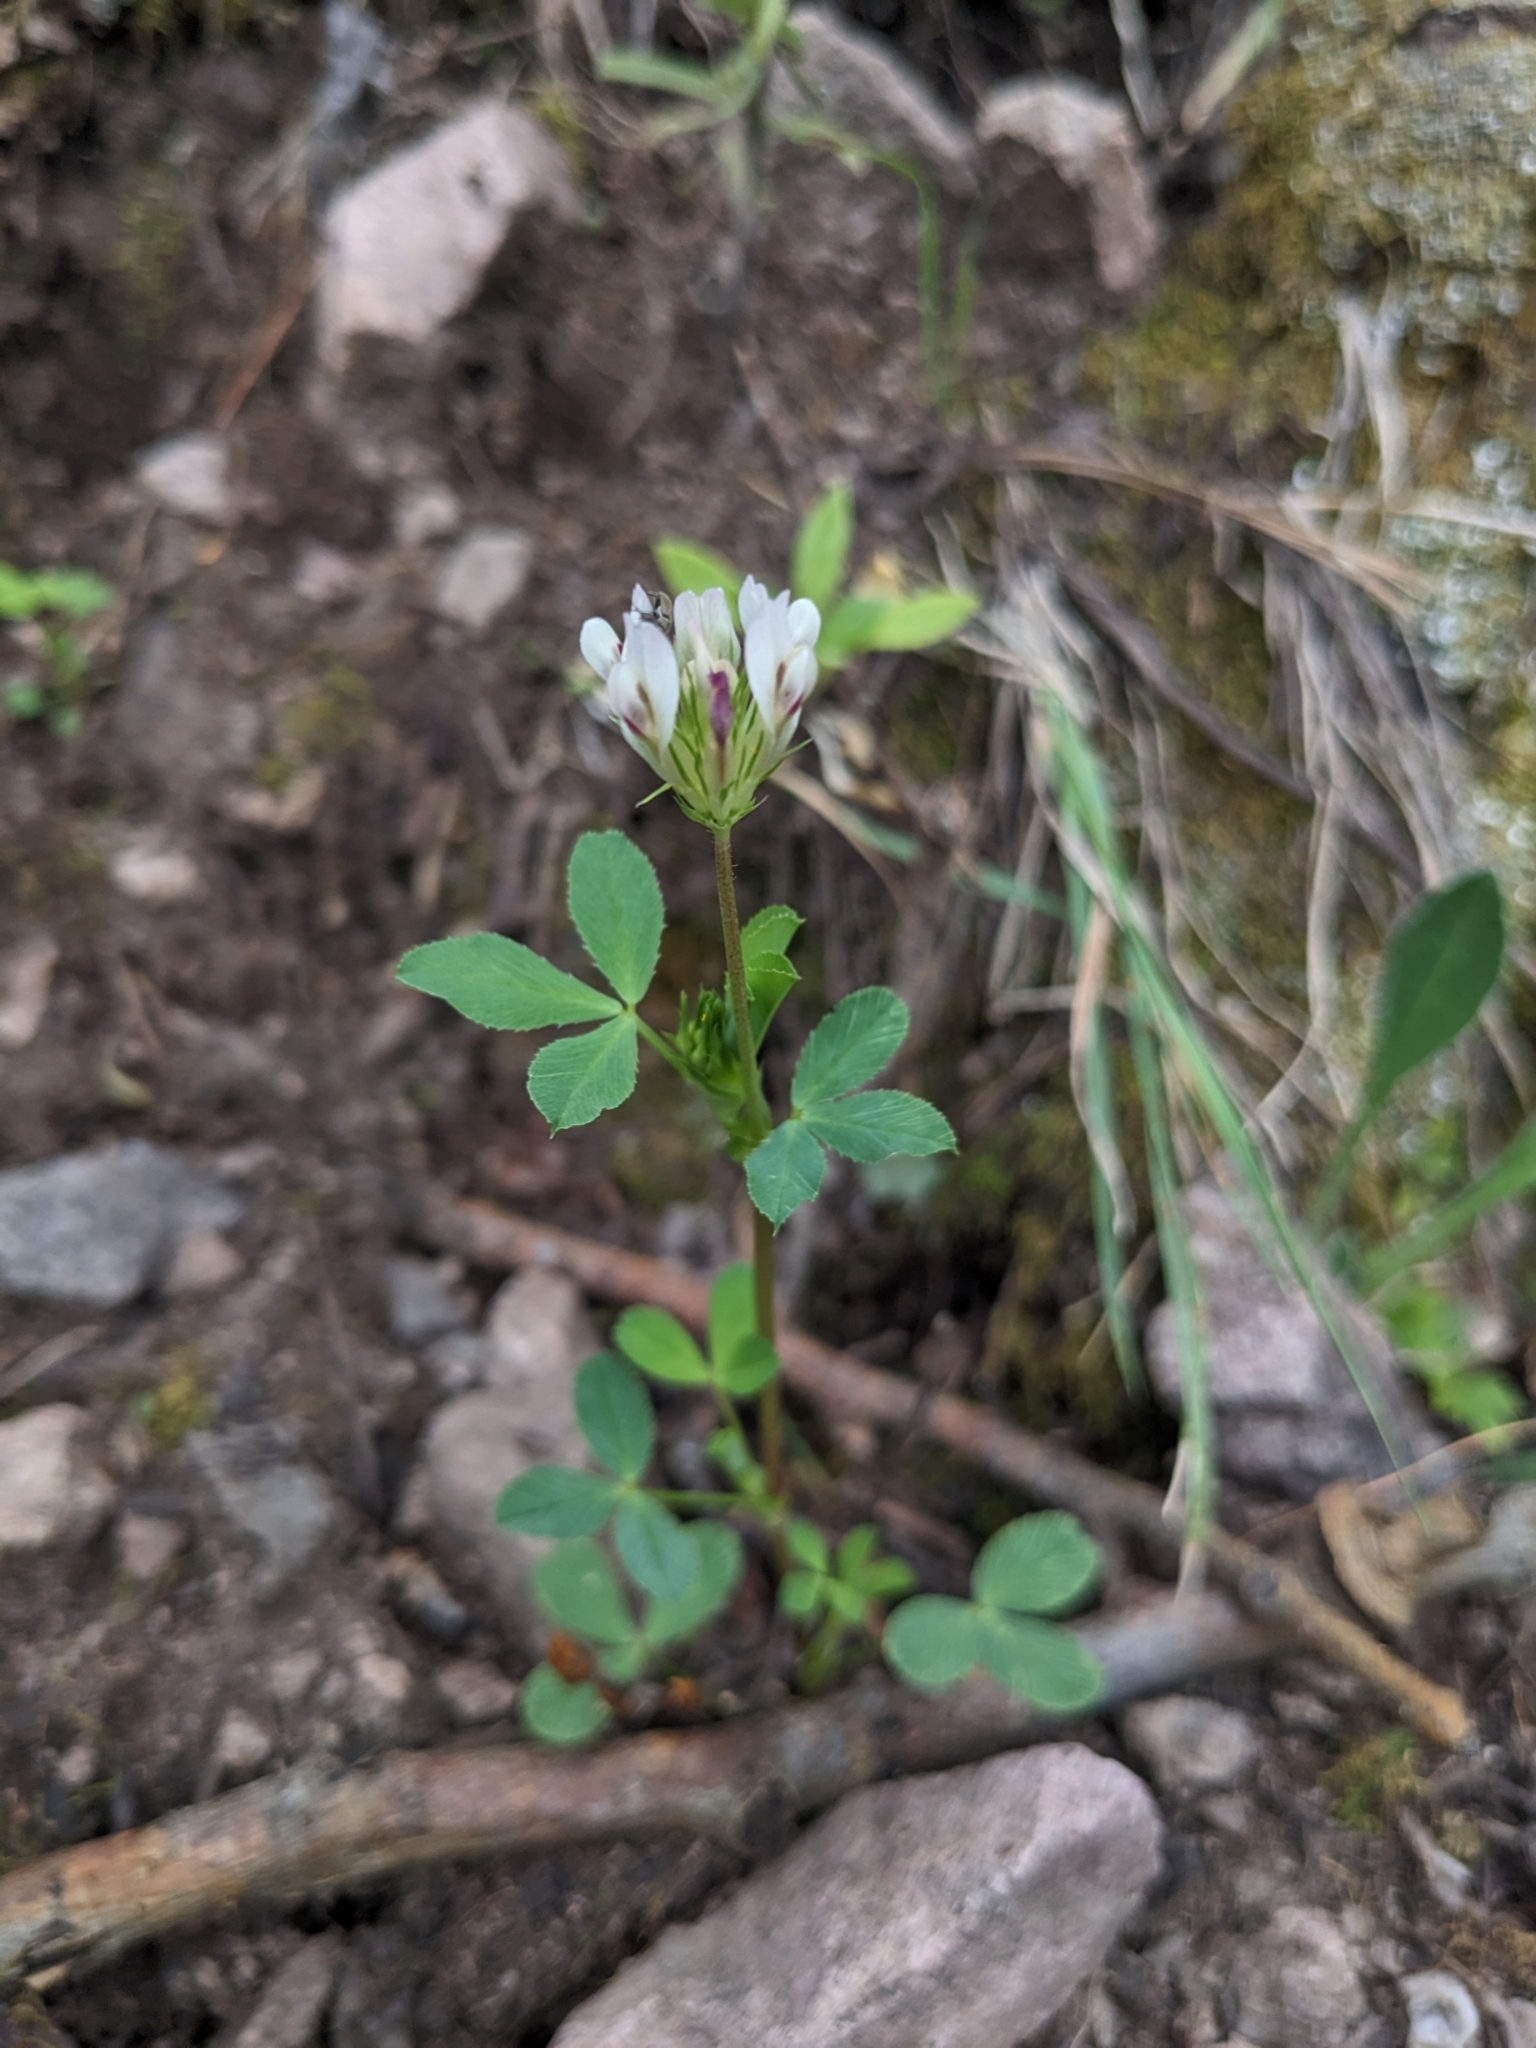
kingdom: Plantae
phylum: Tracheophyta
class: Magnoliopsida
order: Fabales
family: Fabaceae
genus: Trifolium
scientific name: Trifolium wormskioldii
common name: Springbank clover
